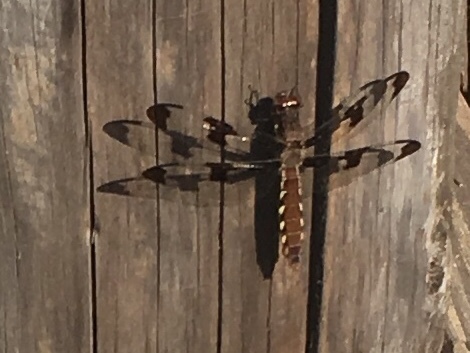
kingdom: Animalia
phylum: Arthropoda
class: Insecta
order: Odonata
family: Libellulidae
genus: Plathemis
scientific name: Plathemis lydia
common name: Common whitetail
